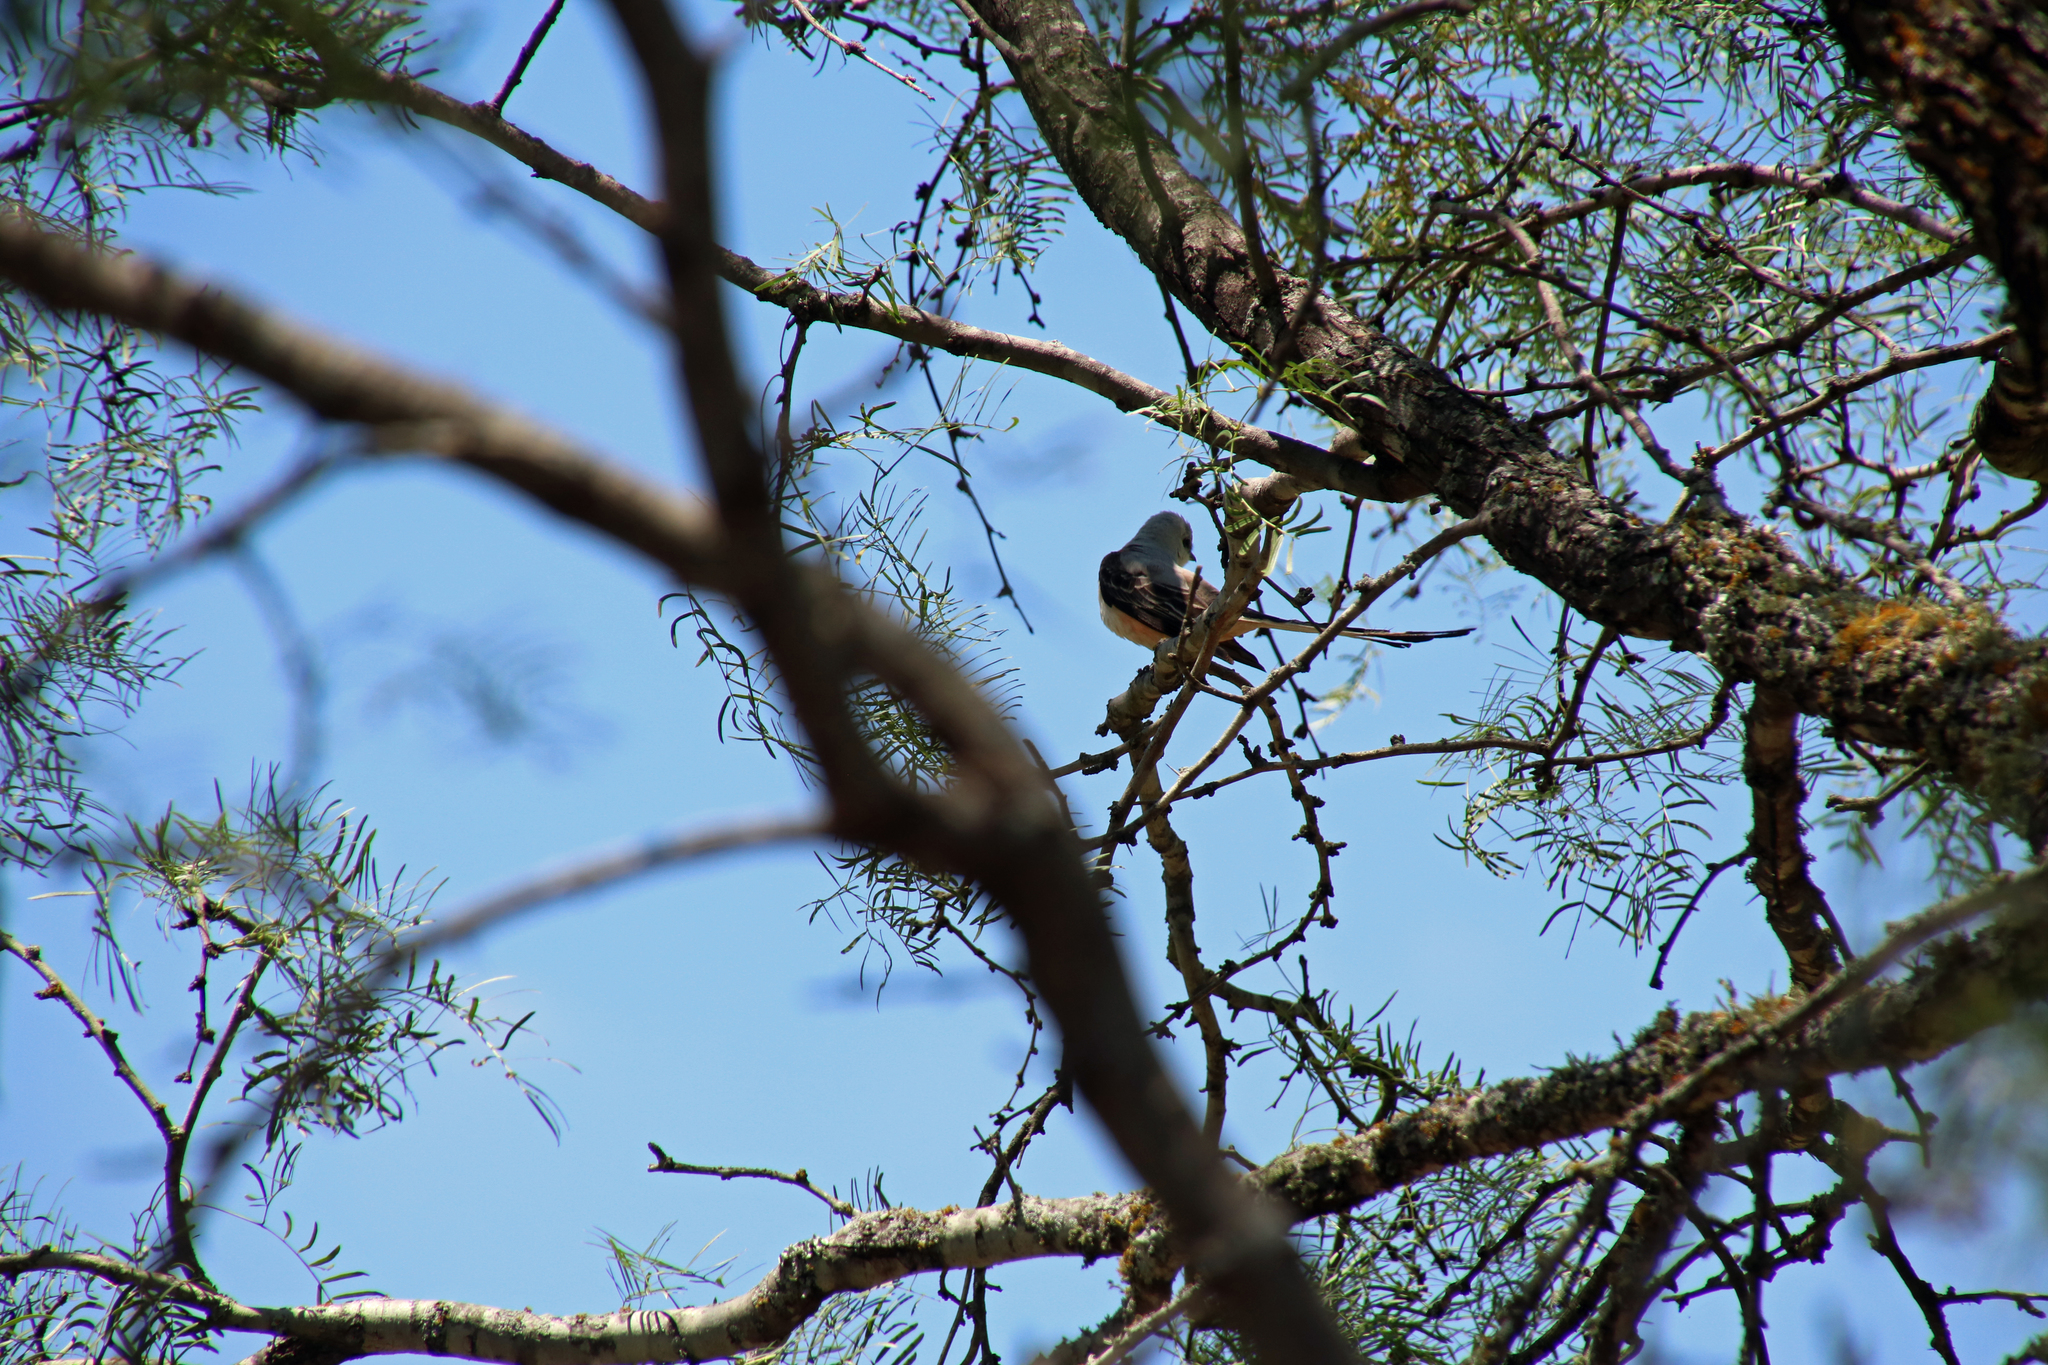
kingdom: Animalia
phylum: Chordata
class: Aves
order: Passeriformes
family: Tyrannidae
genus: Tyrannus
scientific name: Tyrannus forficatus
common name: Scissor-tailed flycatcher
